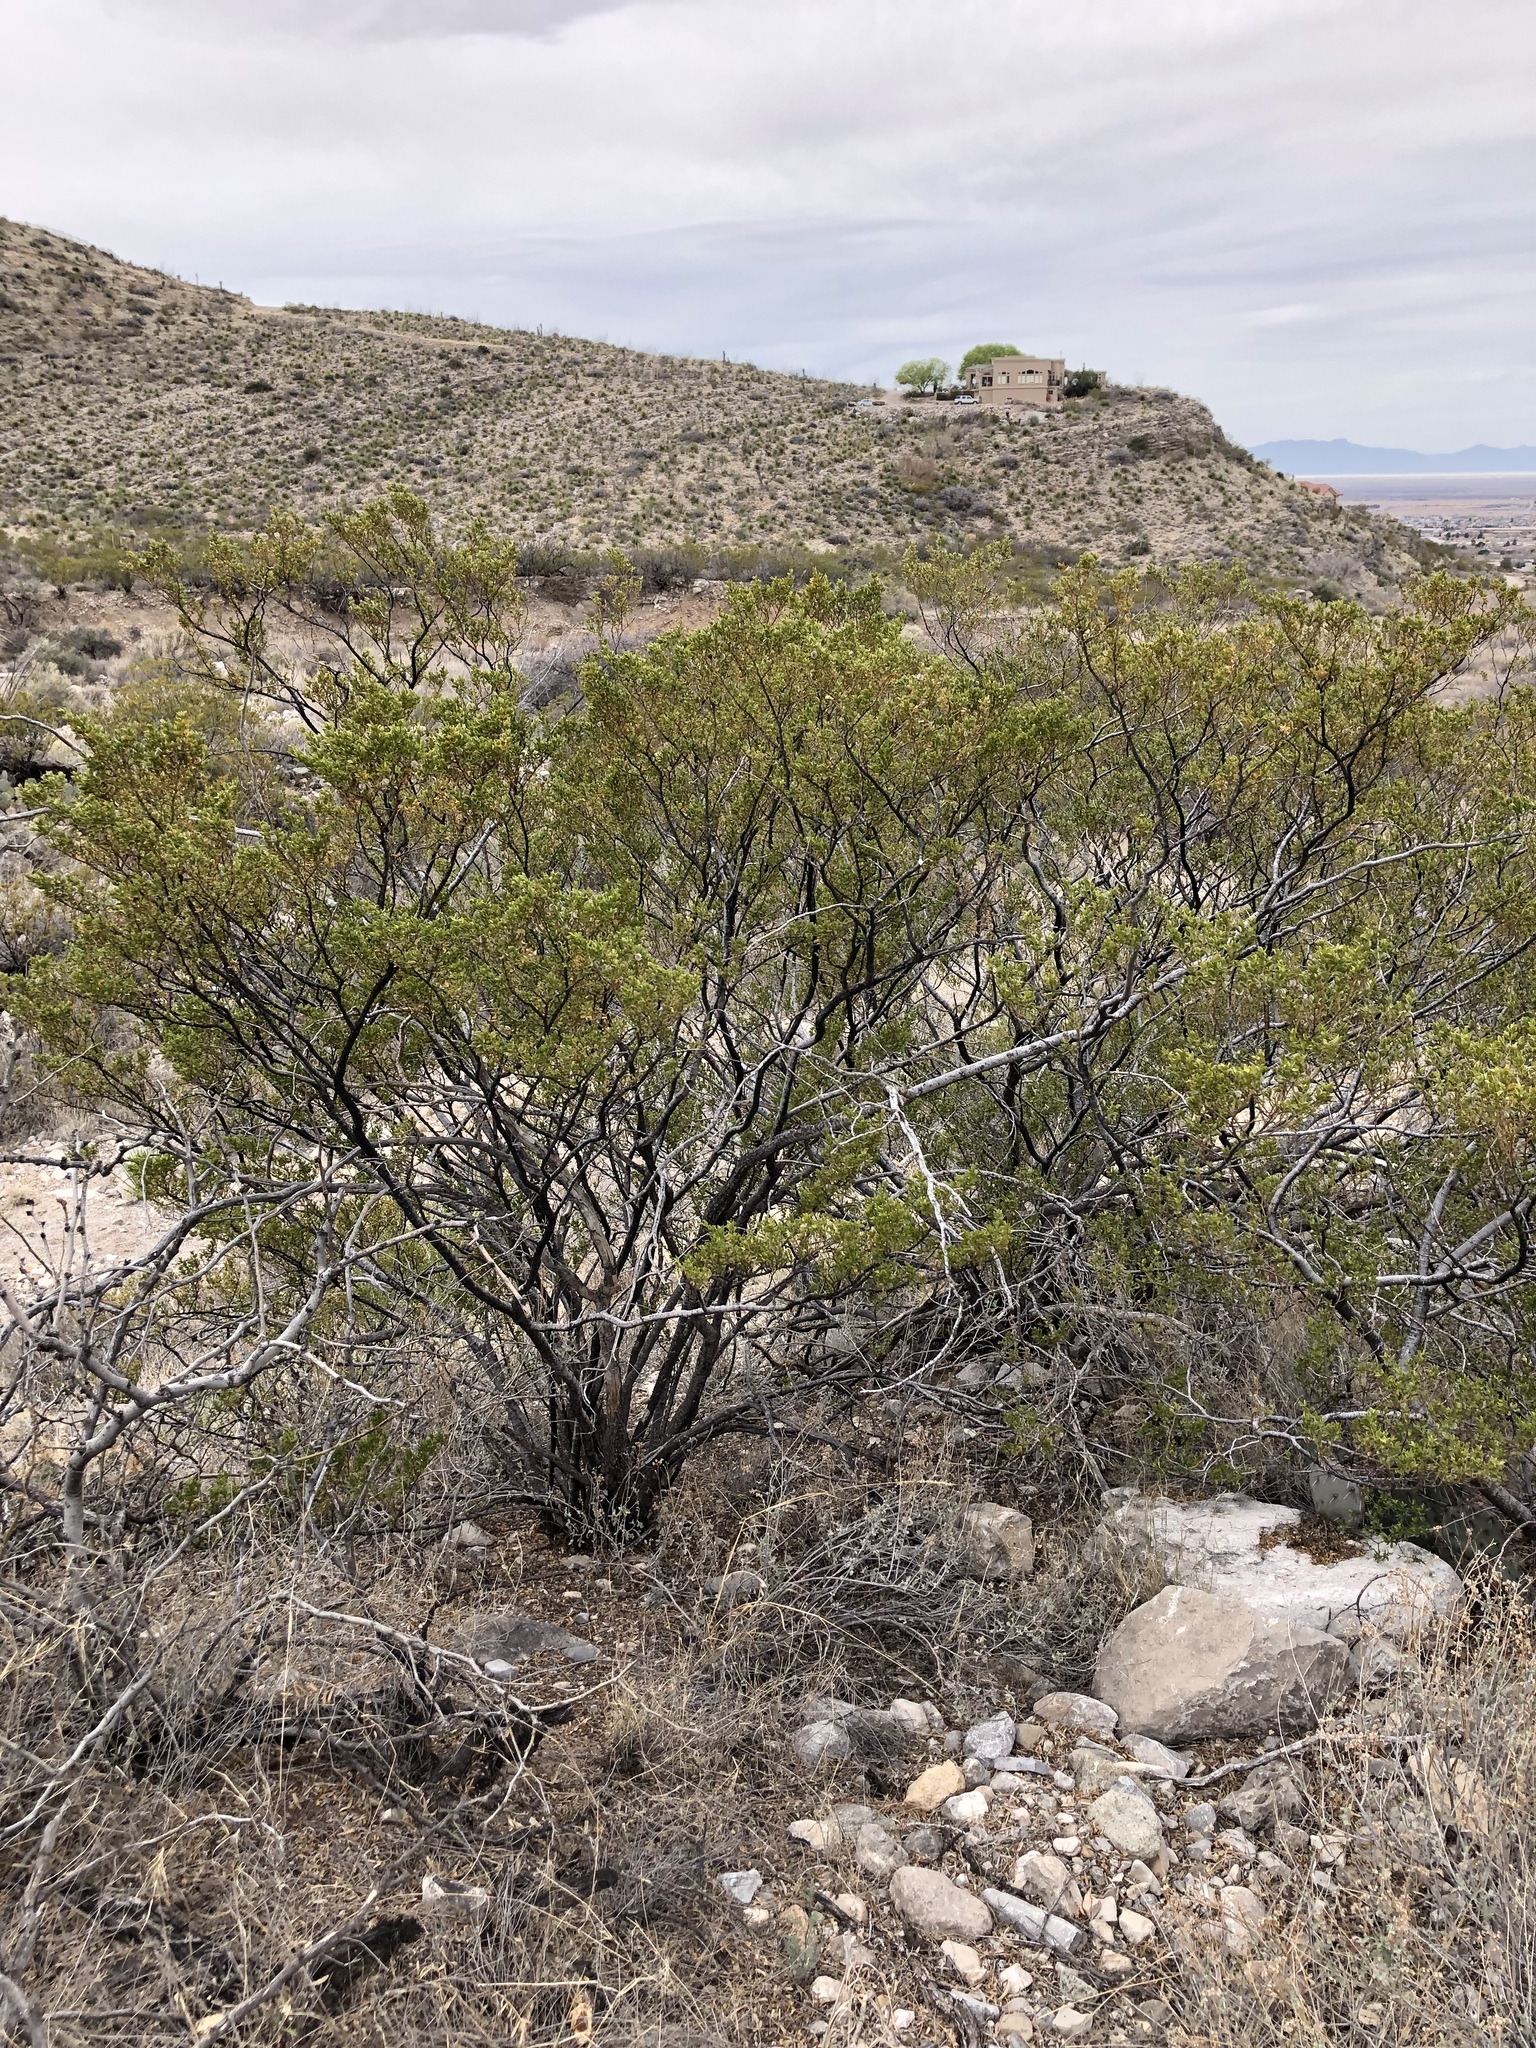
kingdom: Plantae
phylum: Tracheophyta
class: Magnoliopsida
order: Zygophyllales
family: Zygophyllaceae
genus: Larrea
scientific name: Larrea tridentata
